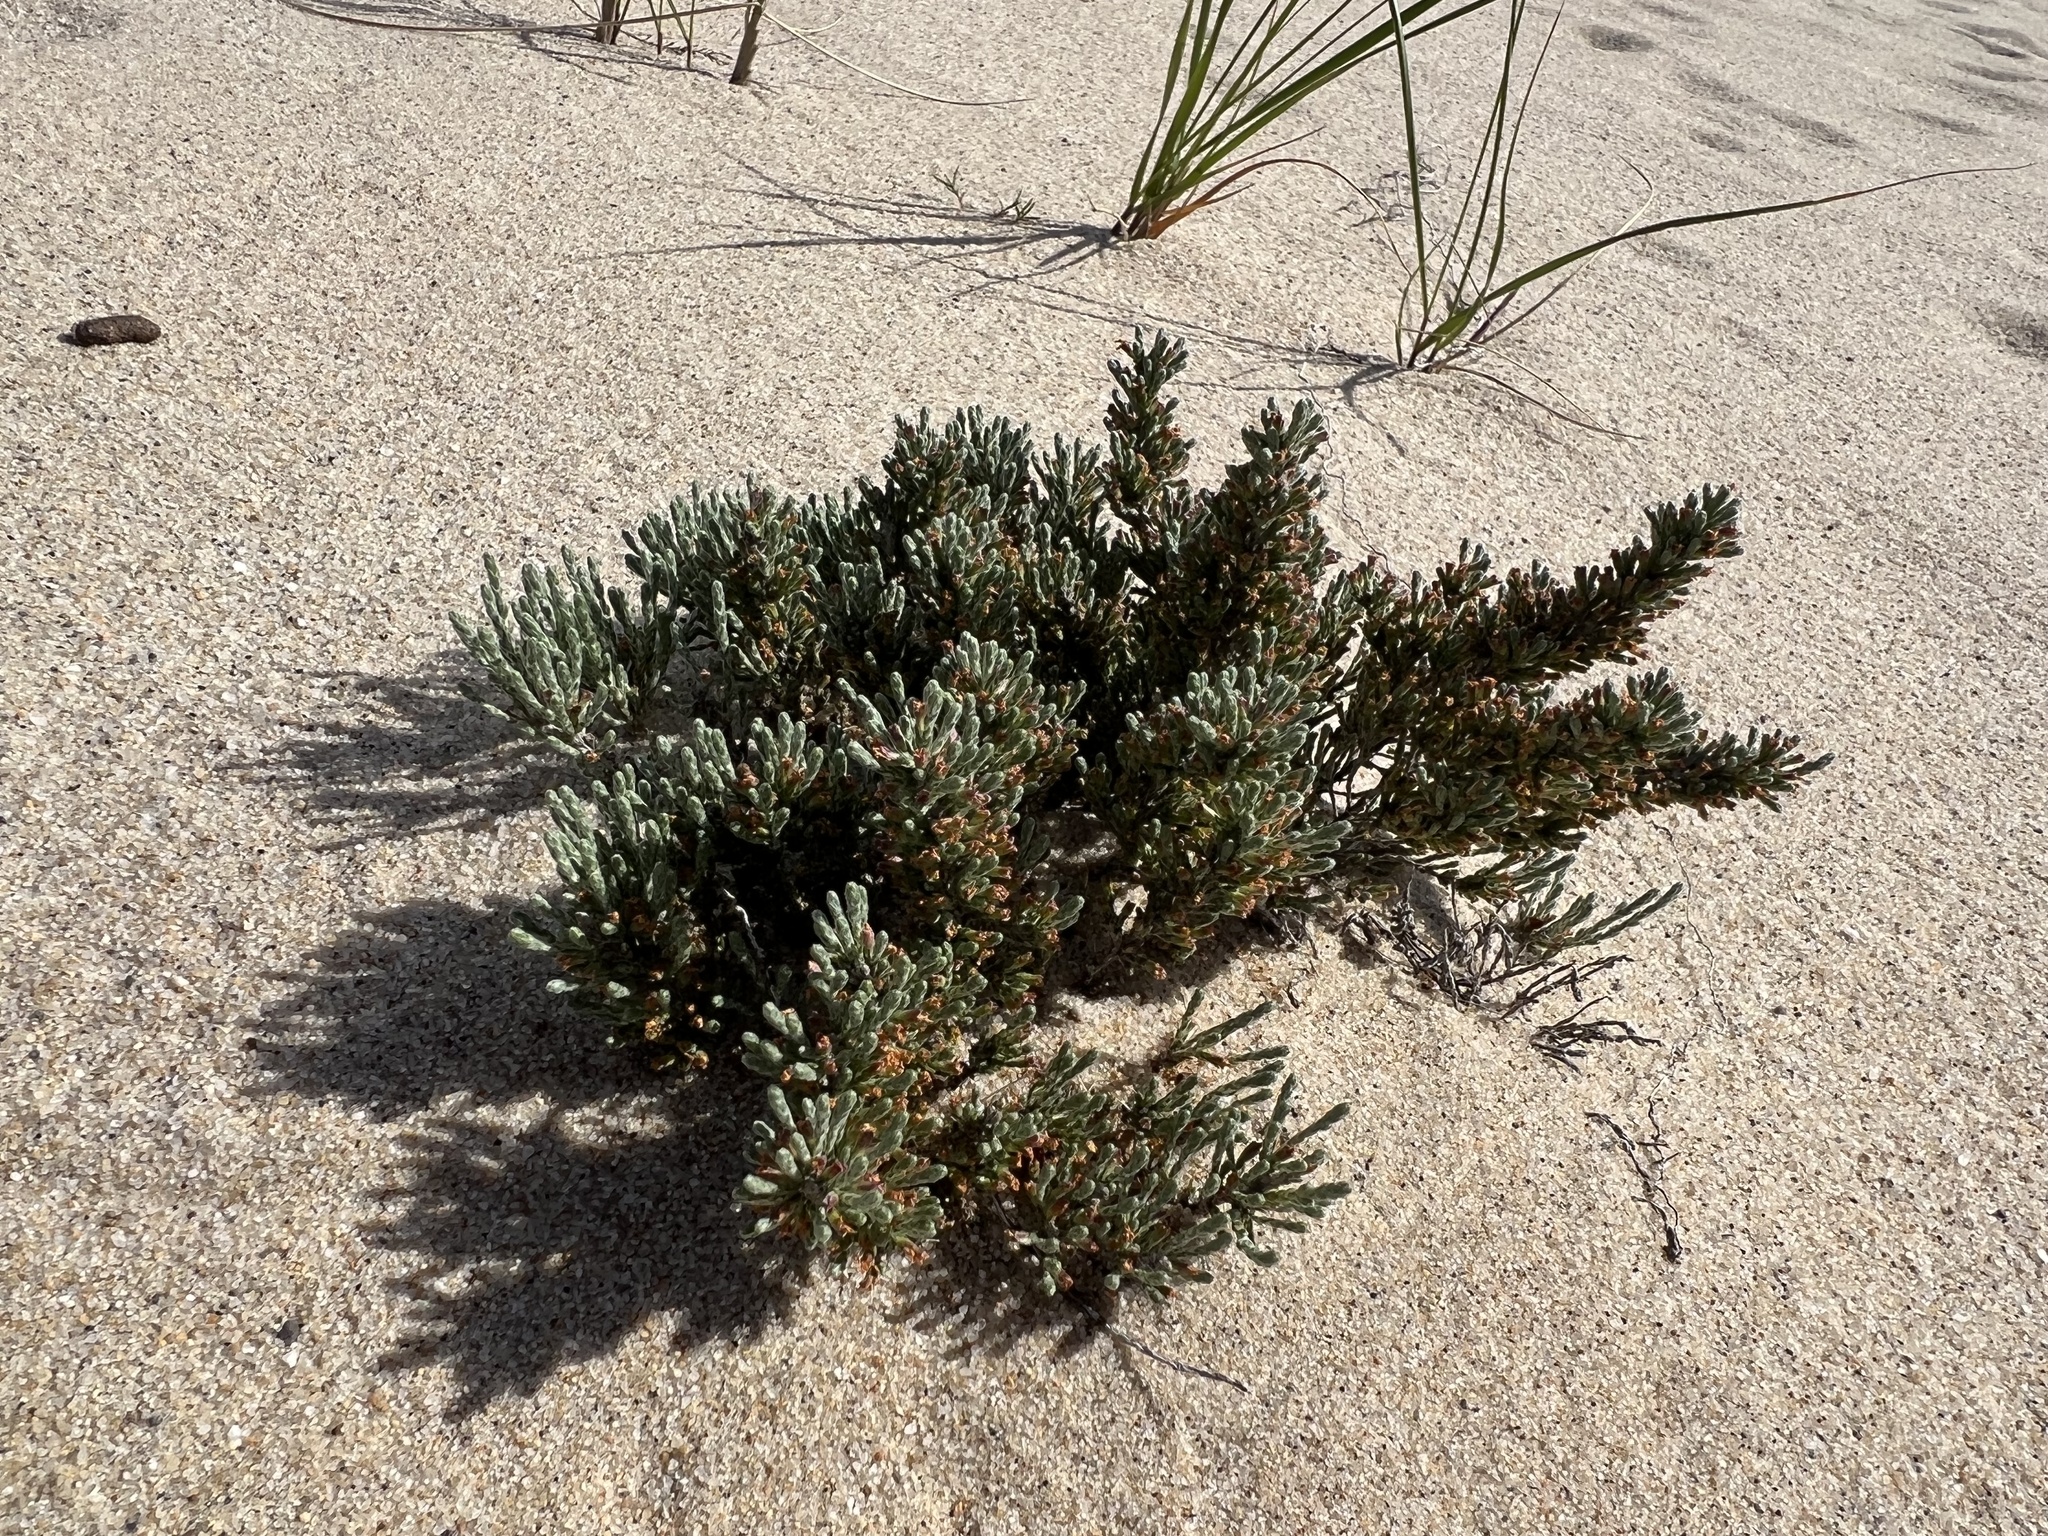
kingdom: Plantae
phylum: Tracheophyta
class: Magnoliopsida
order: Malvales
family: Cistaceae
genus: Hudsonia
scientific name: Hudsonia tomentosa
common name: Beach-heath
